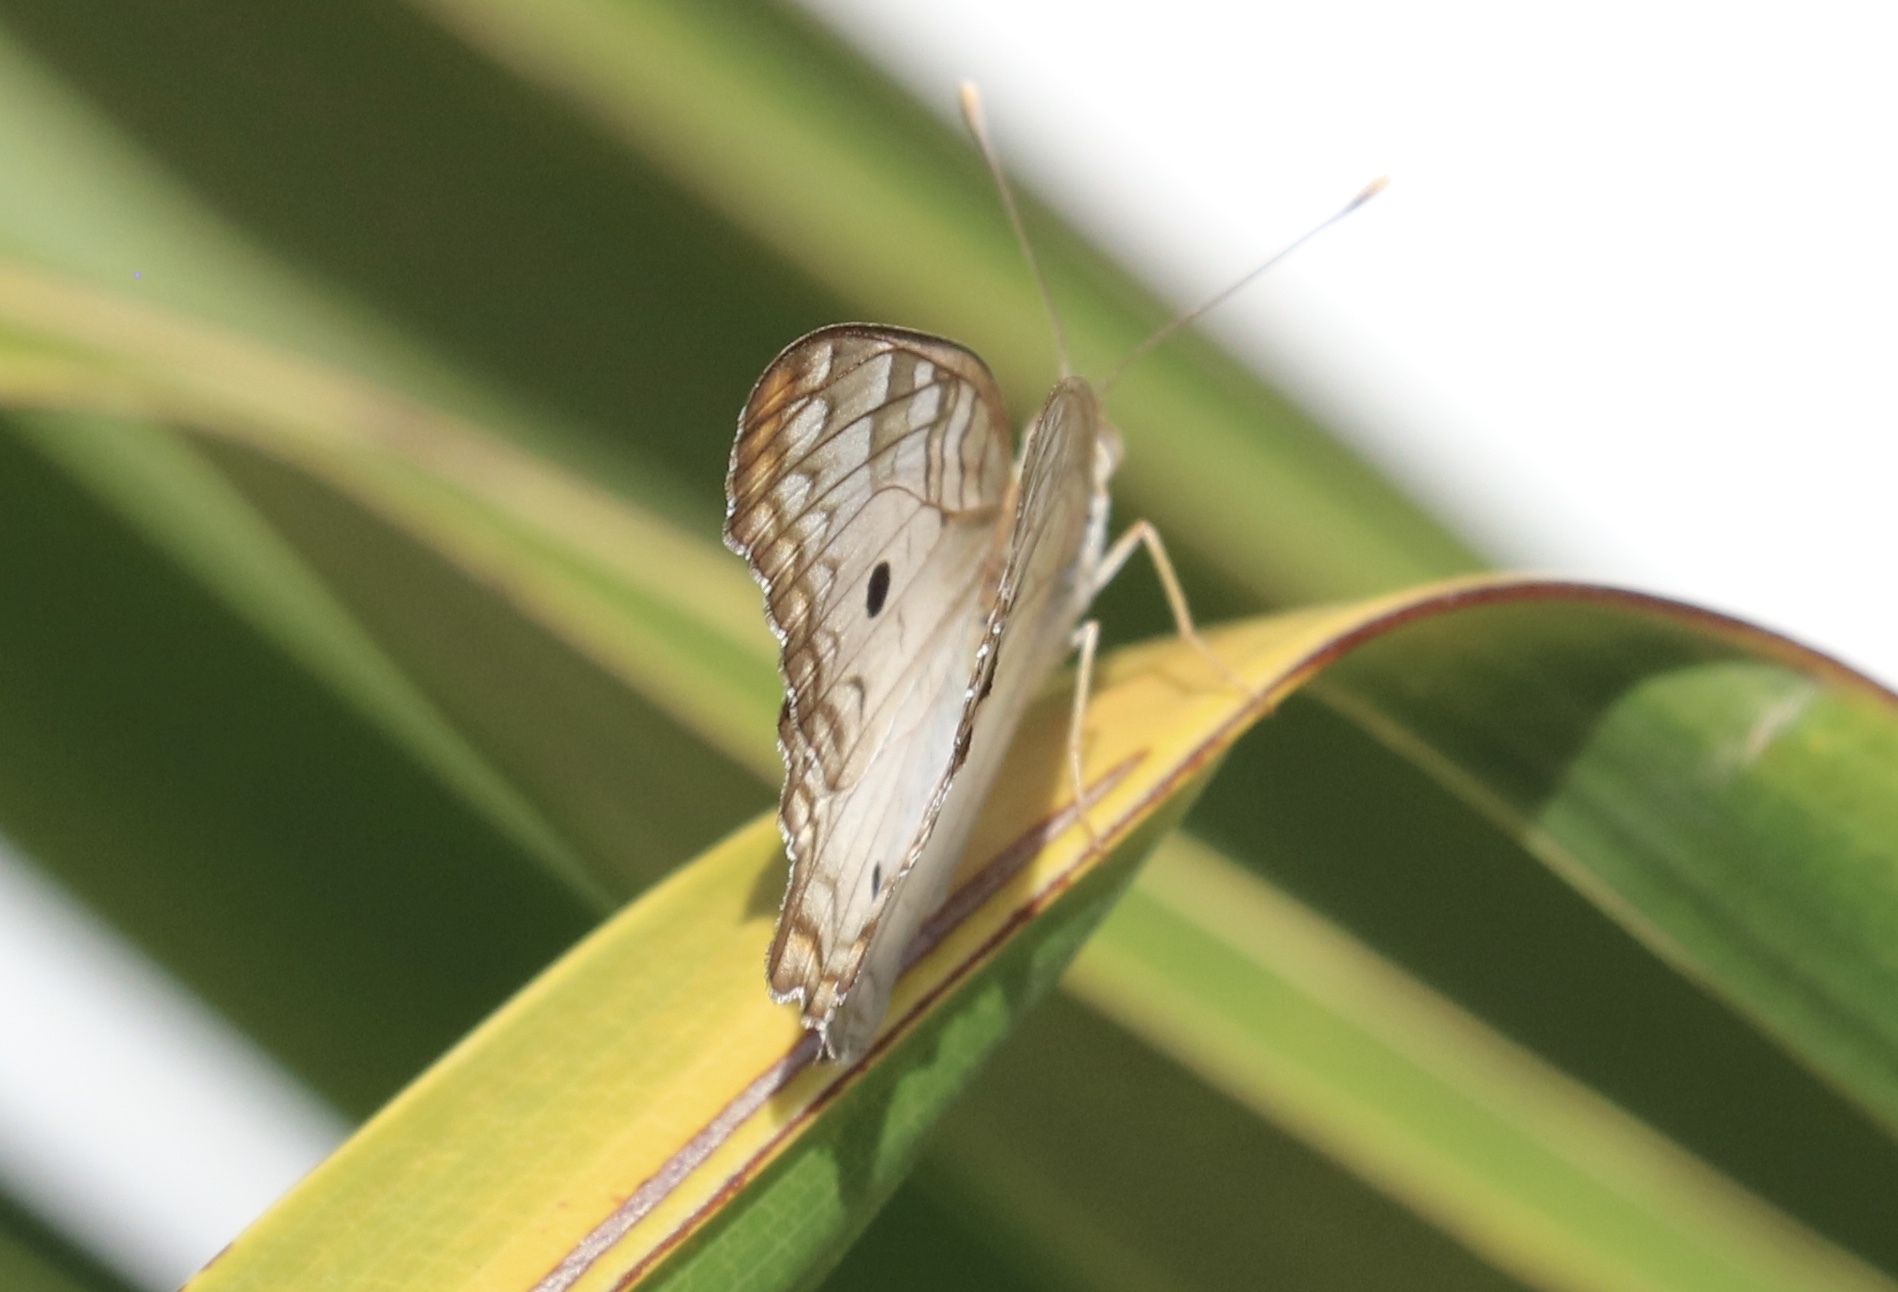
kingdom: Animalia
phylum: Arthropoda
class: Insecta
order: Lepidoptera
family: Nymphalidae
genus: Anartia
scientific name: Anartia jatrophae
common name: White peacock
